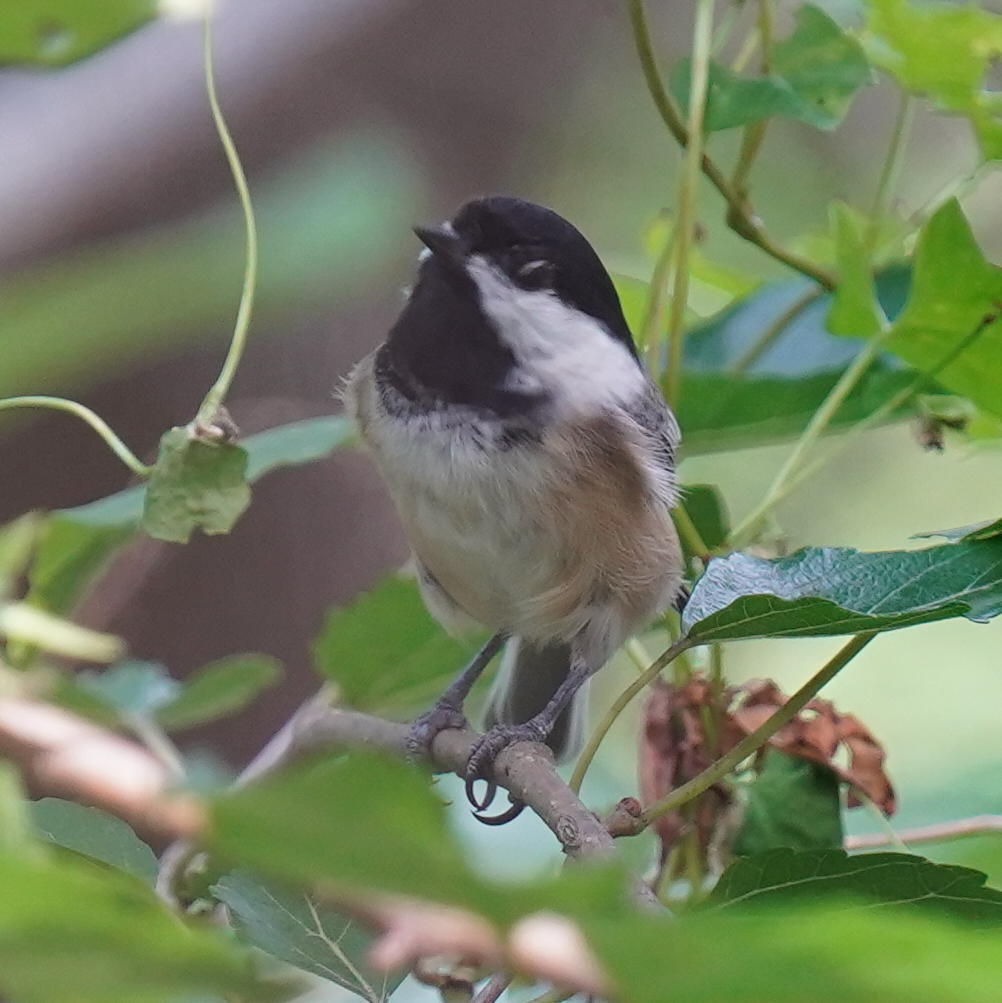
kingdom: Animalia
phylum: Chordata
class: Aves
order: Passeriformes
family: Paridae
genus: Poecile
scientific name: Poecile atricapillus
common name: Black-capped chickadee
